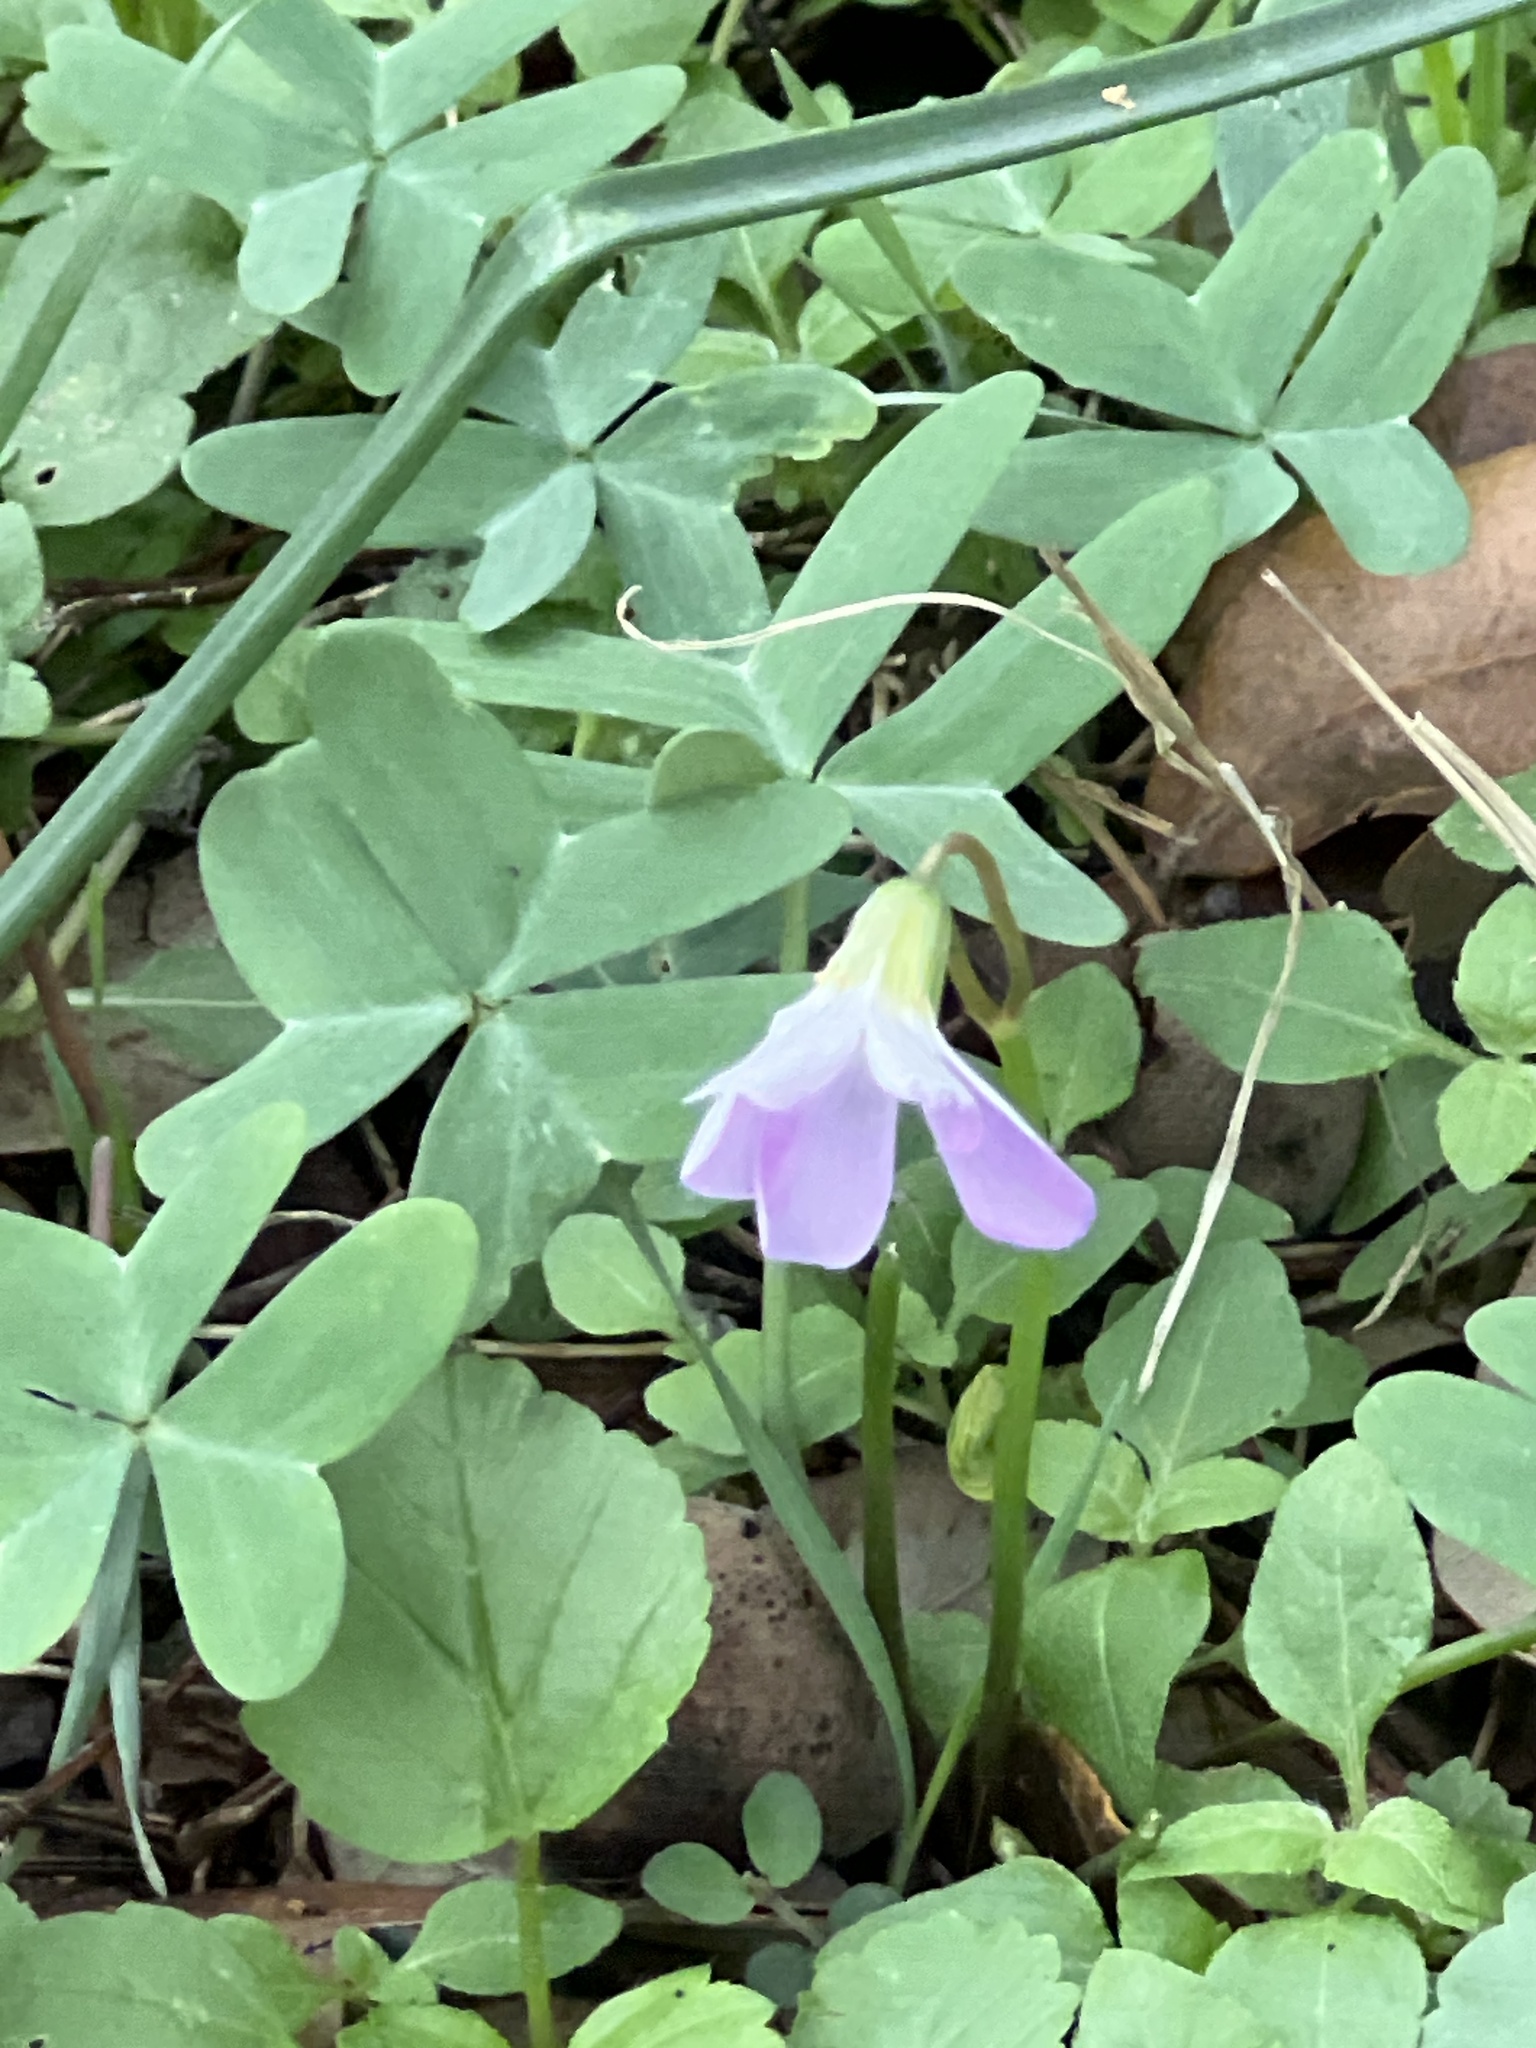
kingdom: Plantae
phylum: Tracheophyta
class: Magnoliopsida
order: Oxalidales
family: Oxalidaceae
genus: Oxalis
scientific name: Oxalis drummondii
